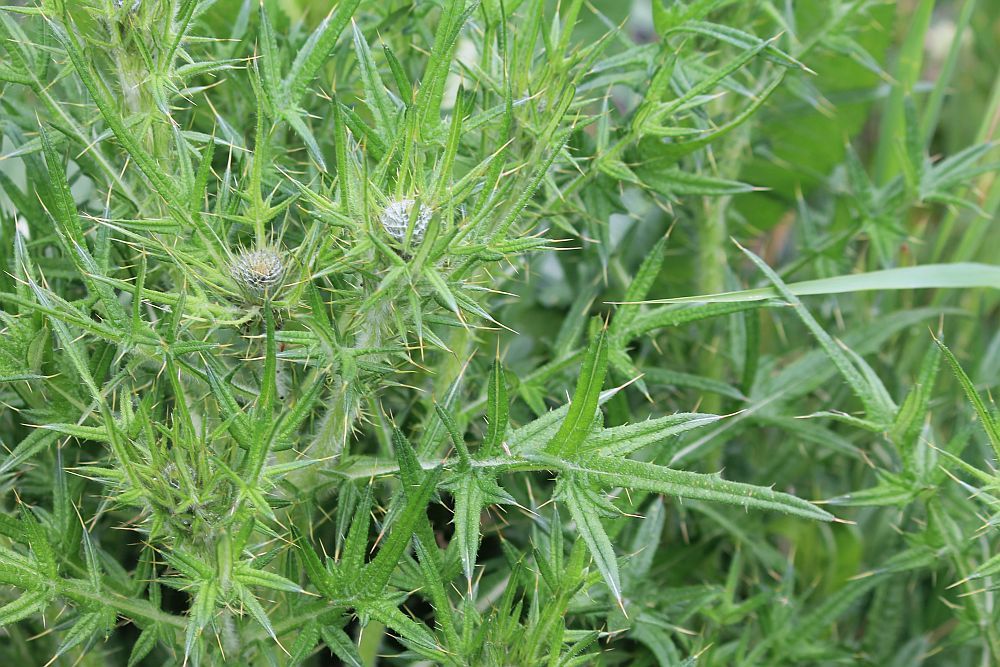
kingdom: Plantae
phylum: Tracheophyta
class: Magnoliopsida
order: Asterales
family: Asteraceae
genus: Cirsium
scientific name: Cirsium vulgare
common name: Bull thistle
